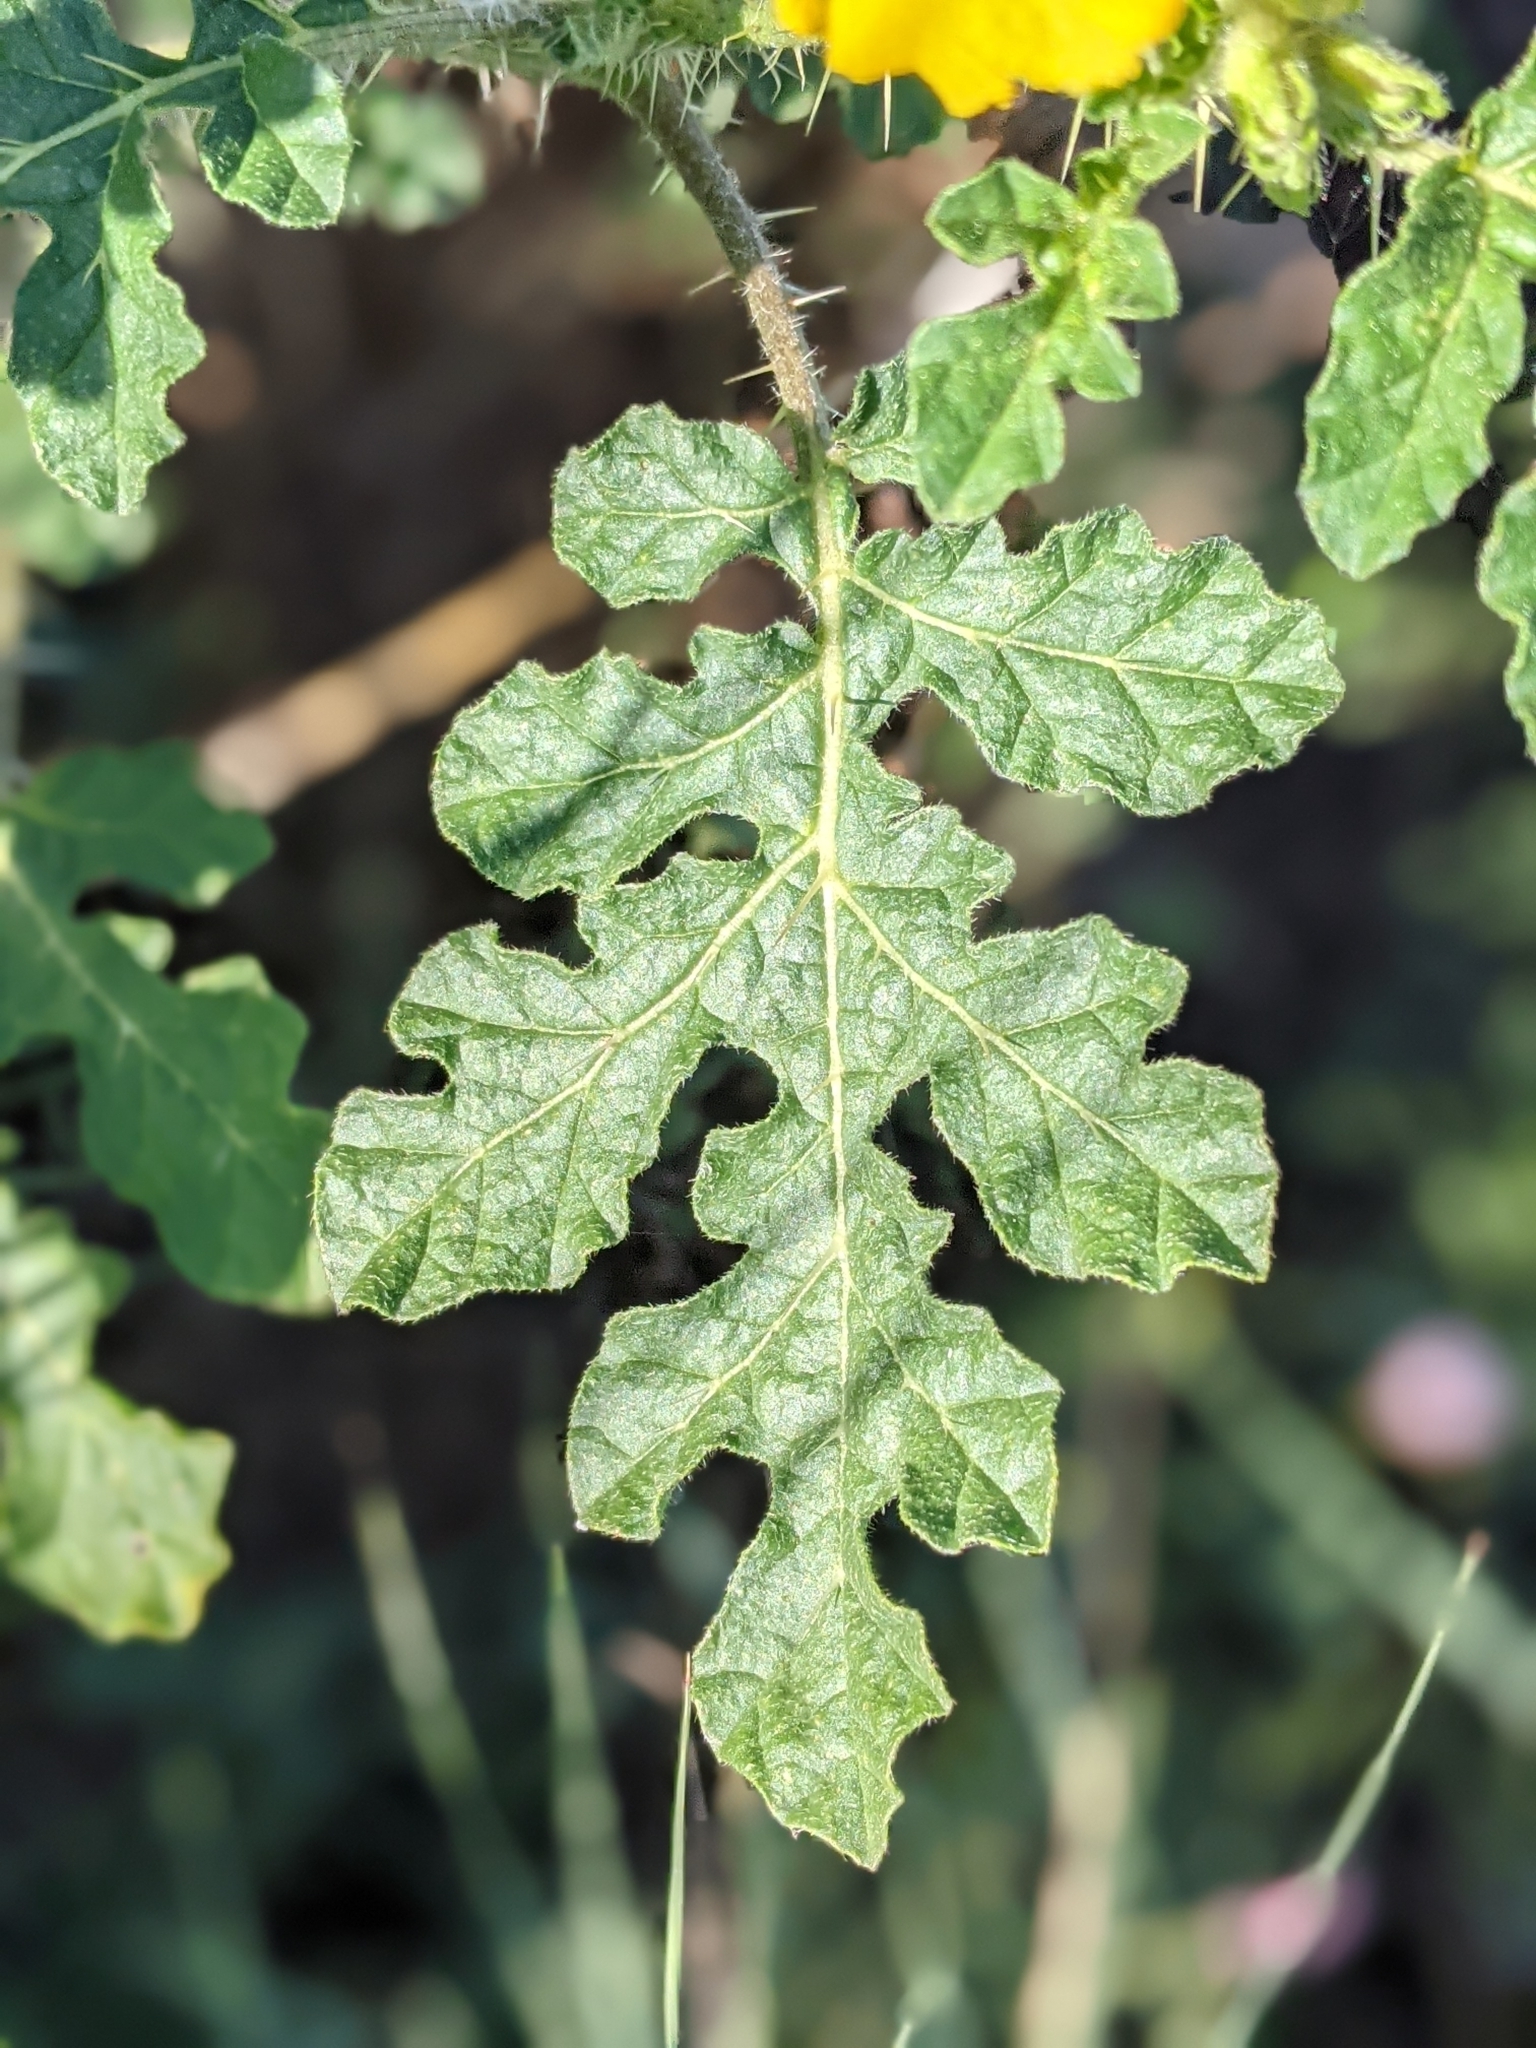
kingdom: Plantae
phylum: Tracheophyta
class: Magnoliopsida
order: Solanales
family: Solanaceae
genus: Solanum
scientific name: Solanum angustifolium
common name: Buffalobur nightshade
